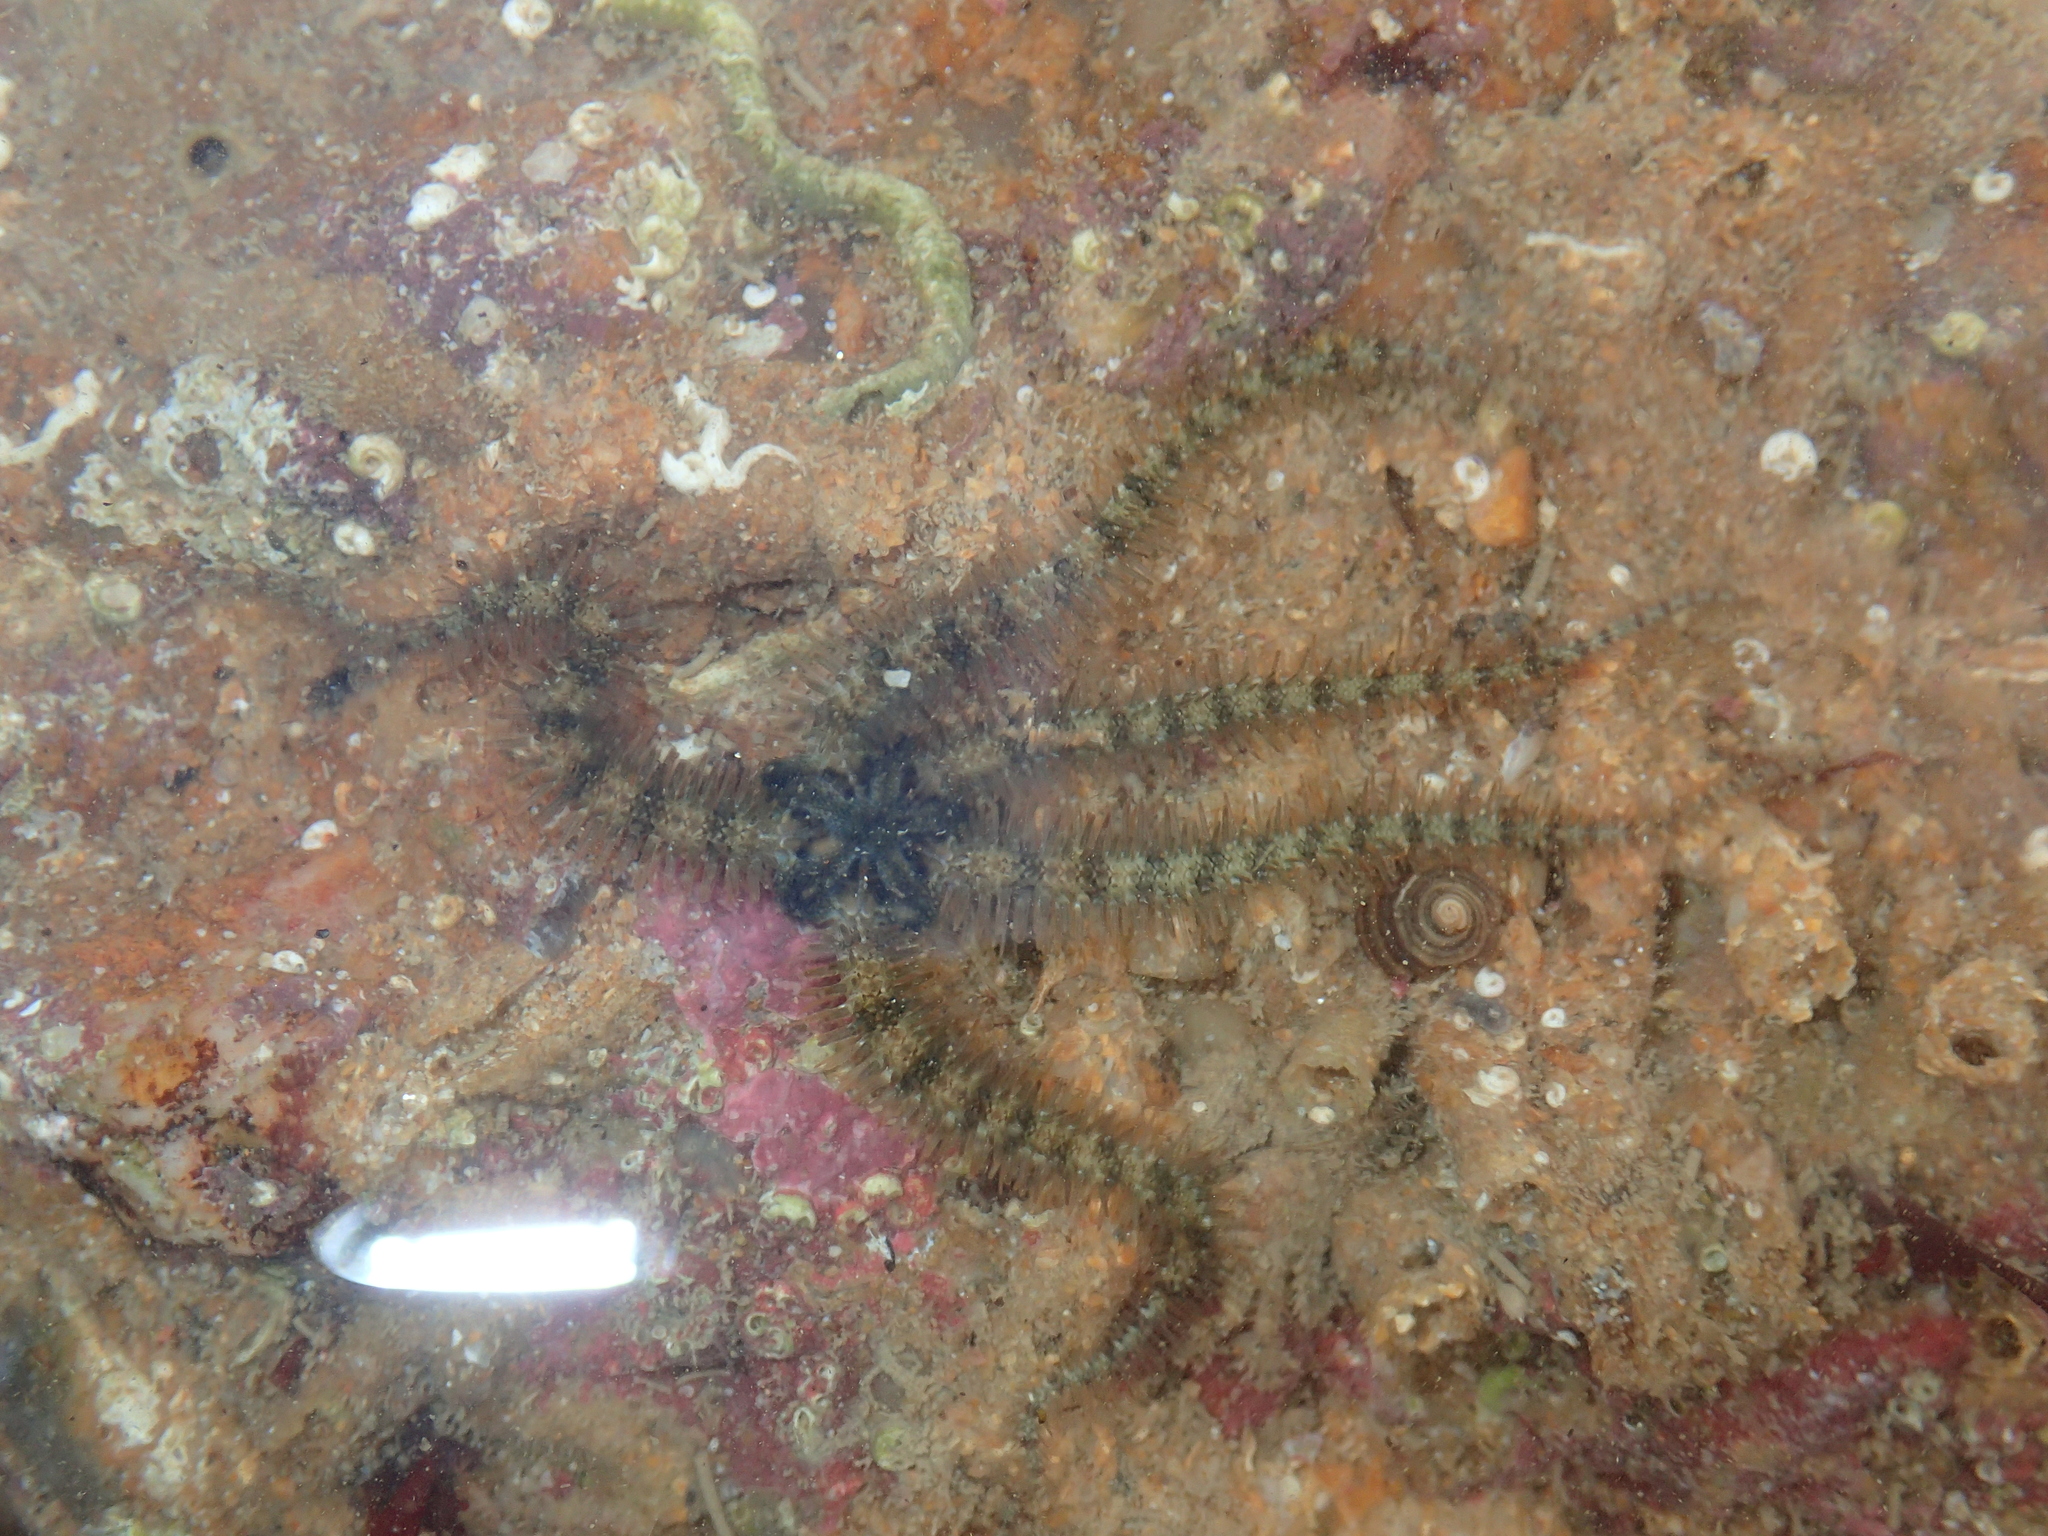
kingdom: Animalia
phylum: Echinodermata
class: Ophiuroidea
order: Amphilepidida
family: Ophiotrichidae
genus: Ophiothrix
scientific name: Ophiothrix fragilis
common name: Common brittlestar
